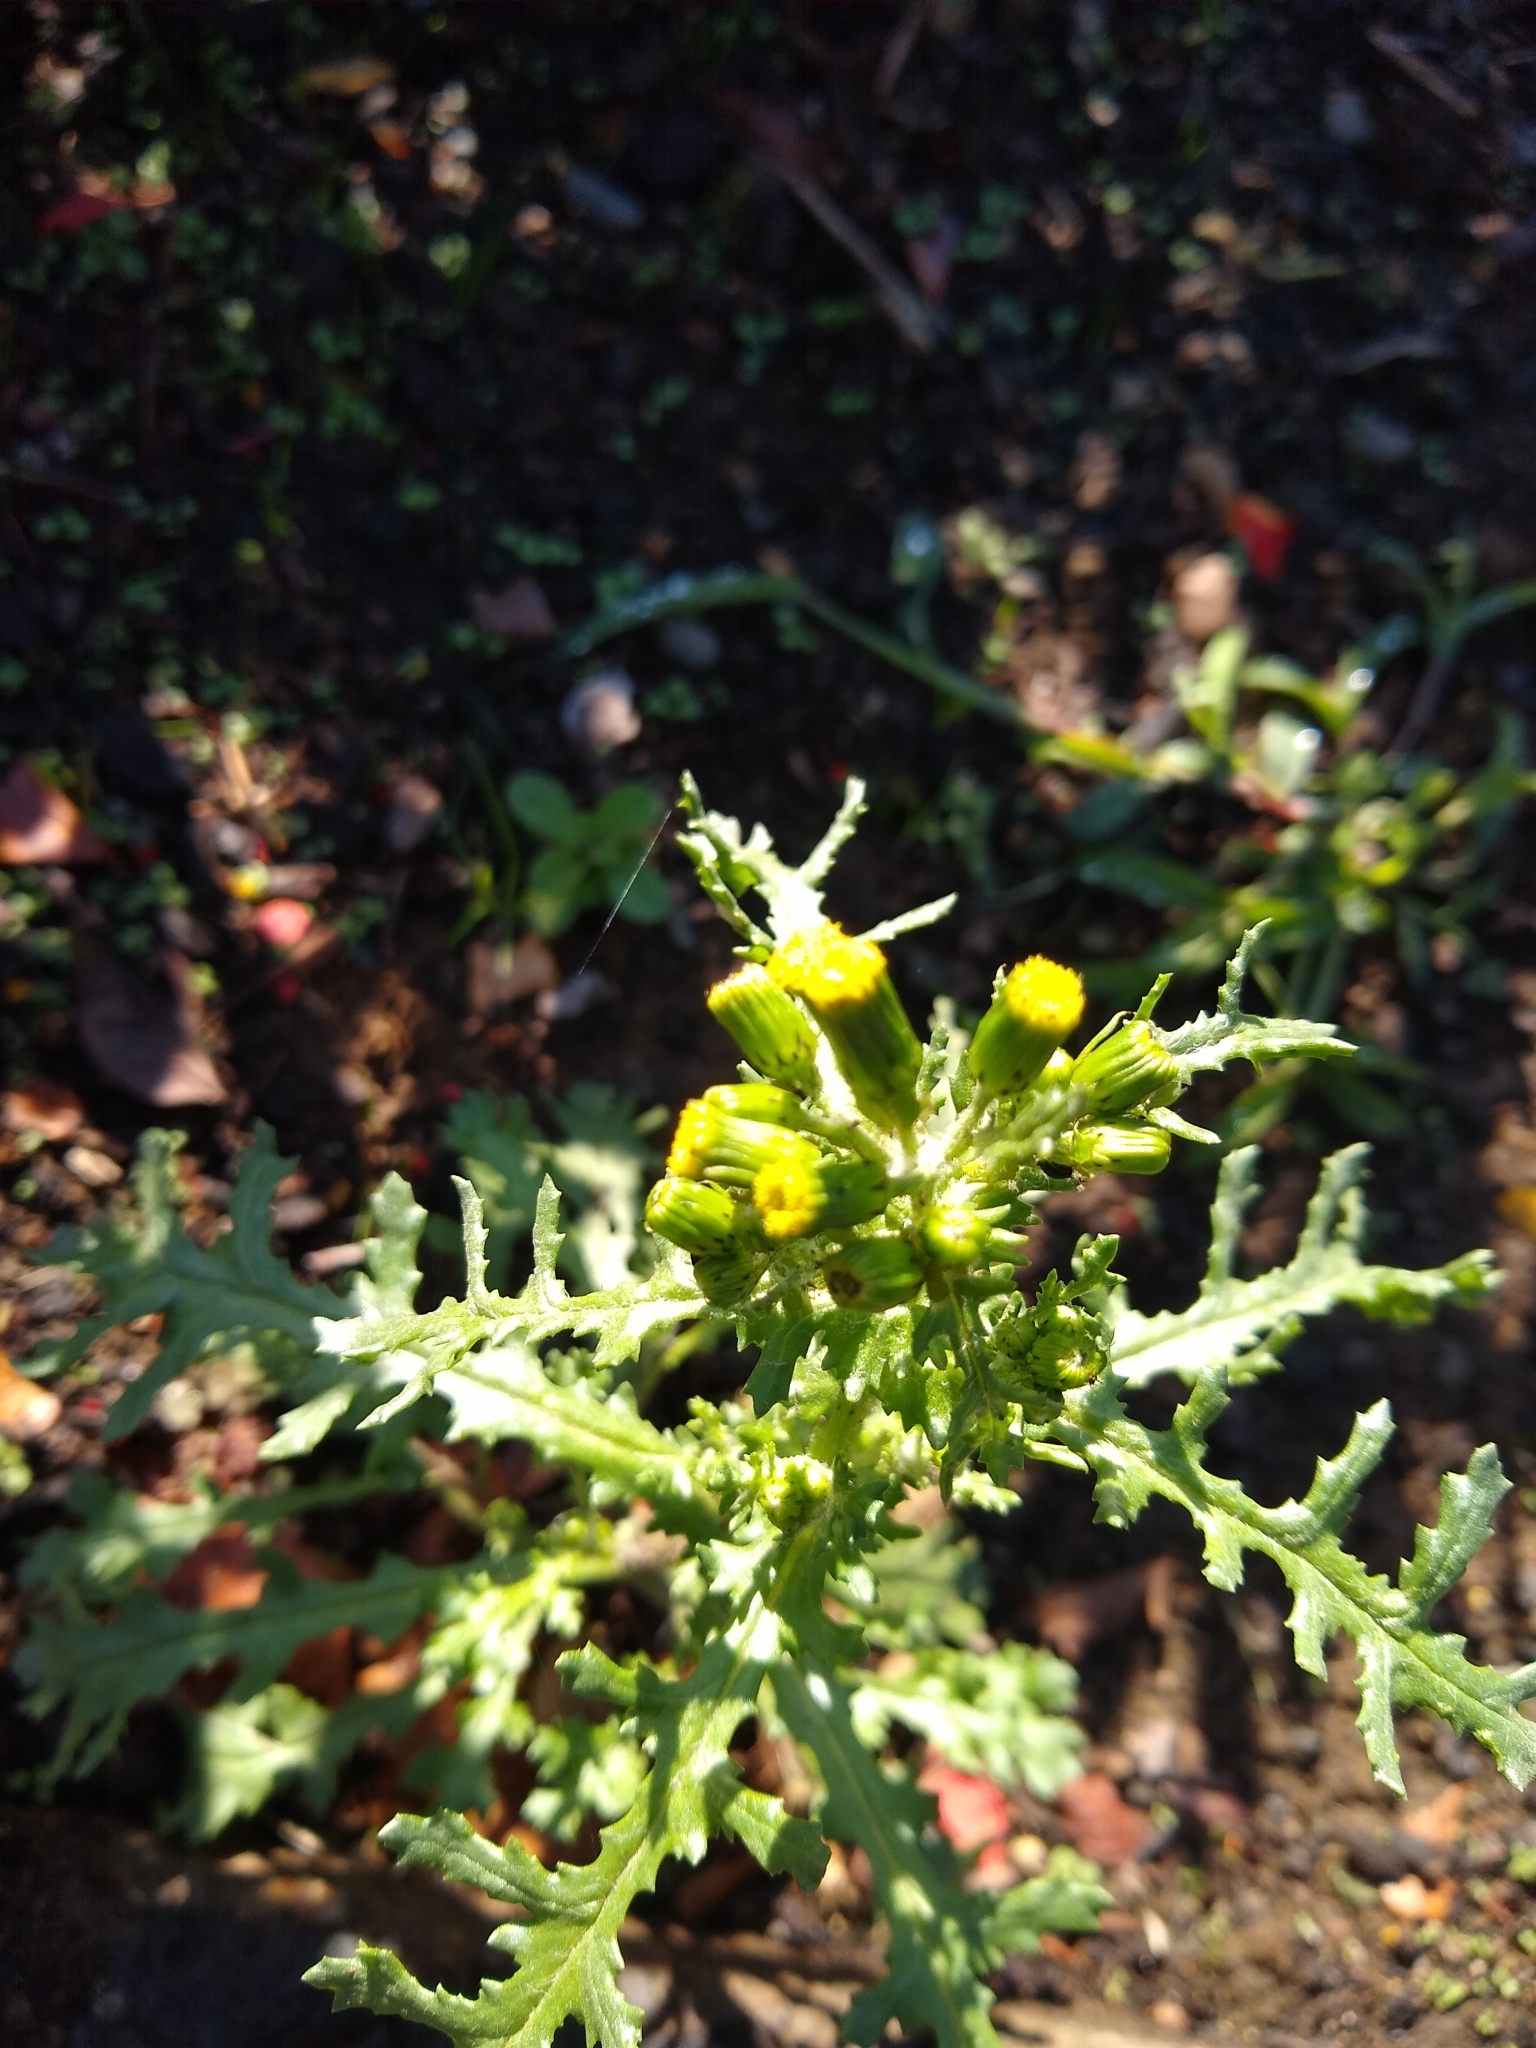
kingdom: Plantae
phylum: Tracheophyta
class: Magnoliopsida
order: Asterales
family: Asteraceae
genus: Senecio
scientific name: Senecio vulgaris
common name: Old-man-in-the-spring
